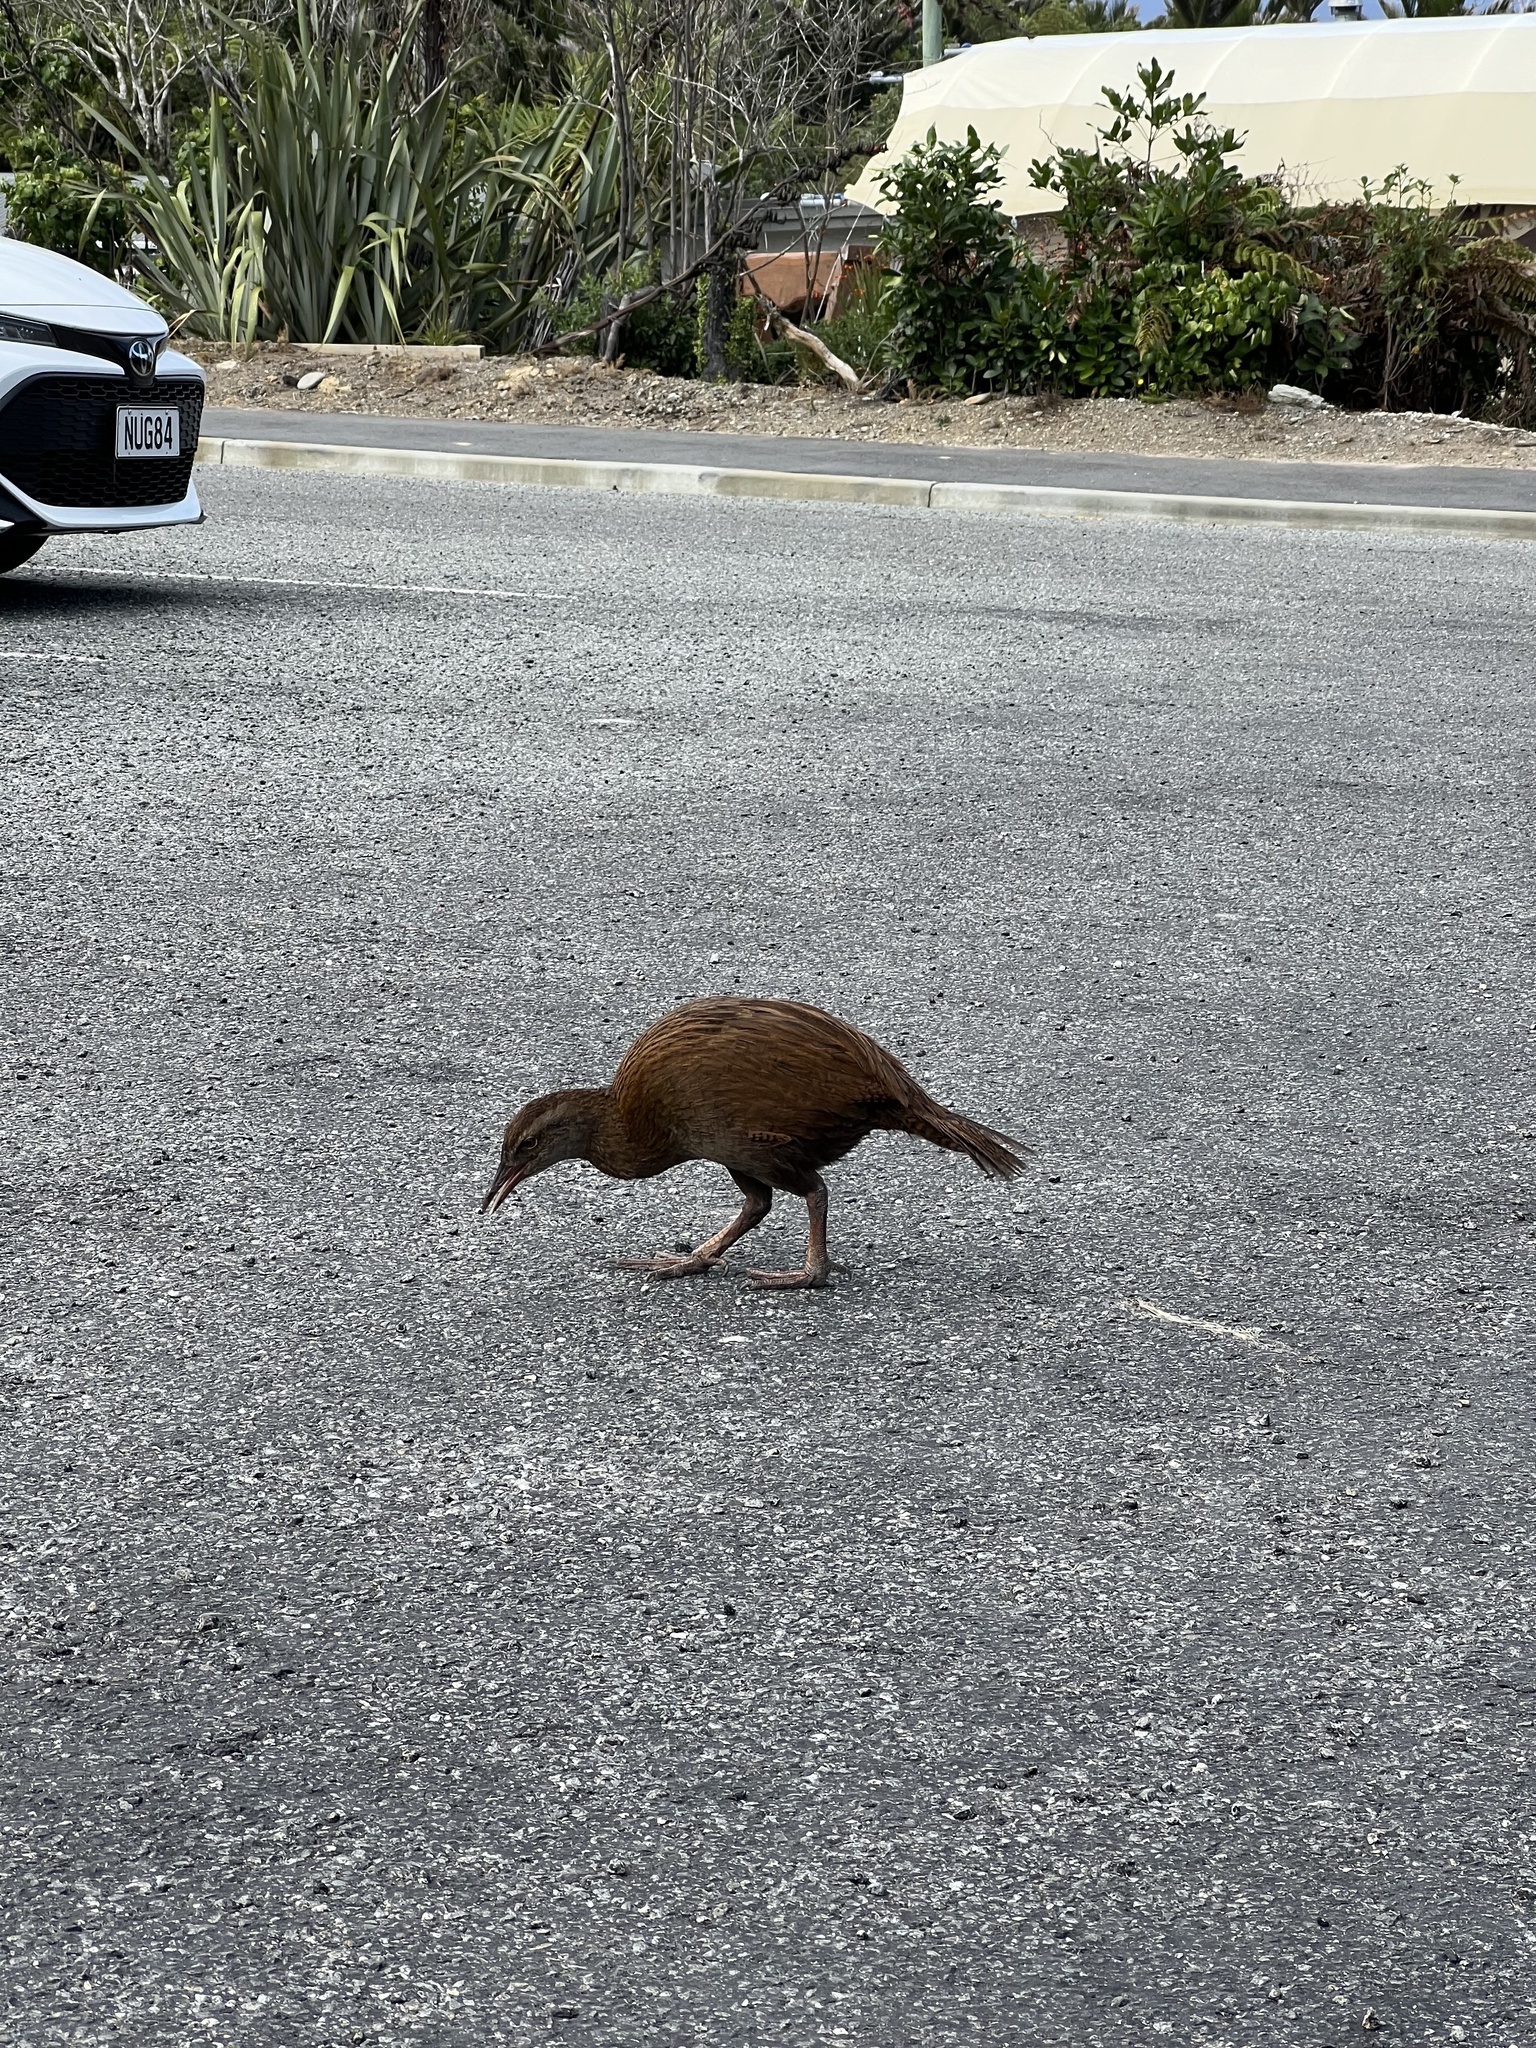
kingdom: Animalia
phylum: Chordata
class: Aves
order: Gruiformes
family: Rallidae
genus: Gallirallus
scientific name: Gallirallus australis
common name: Weka
